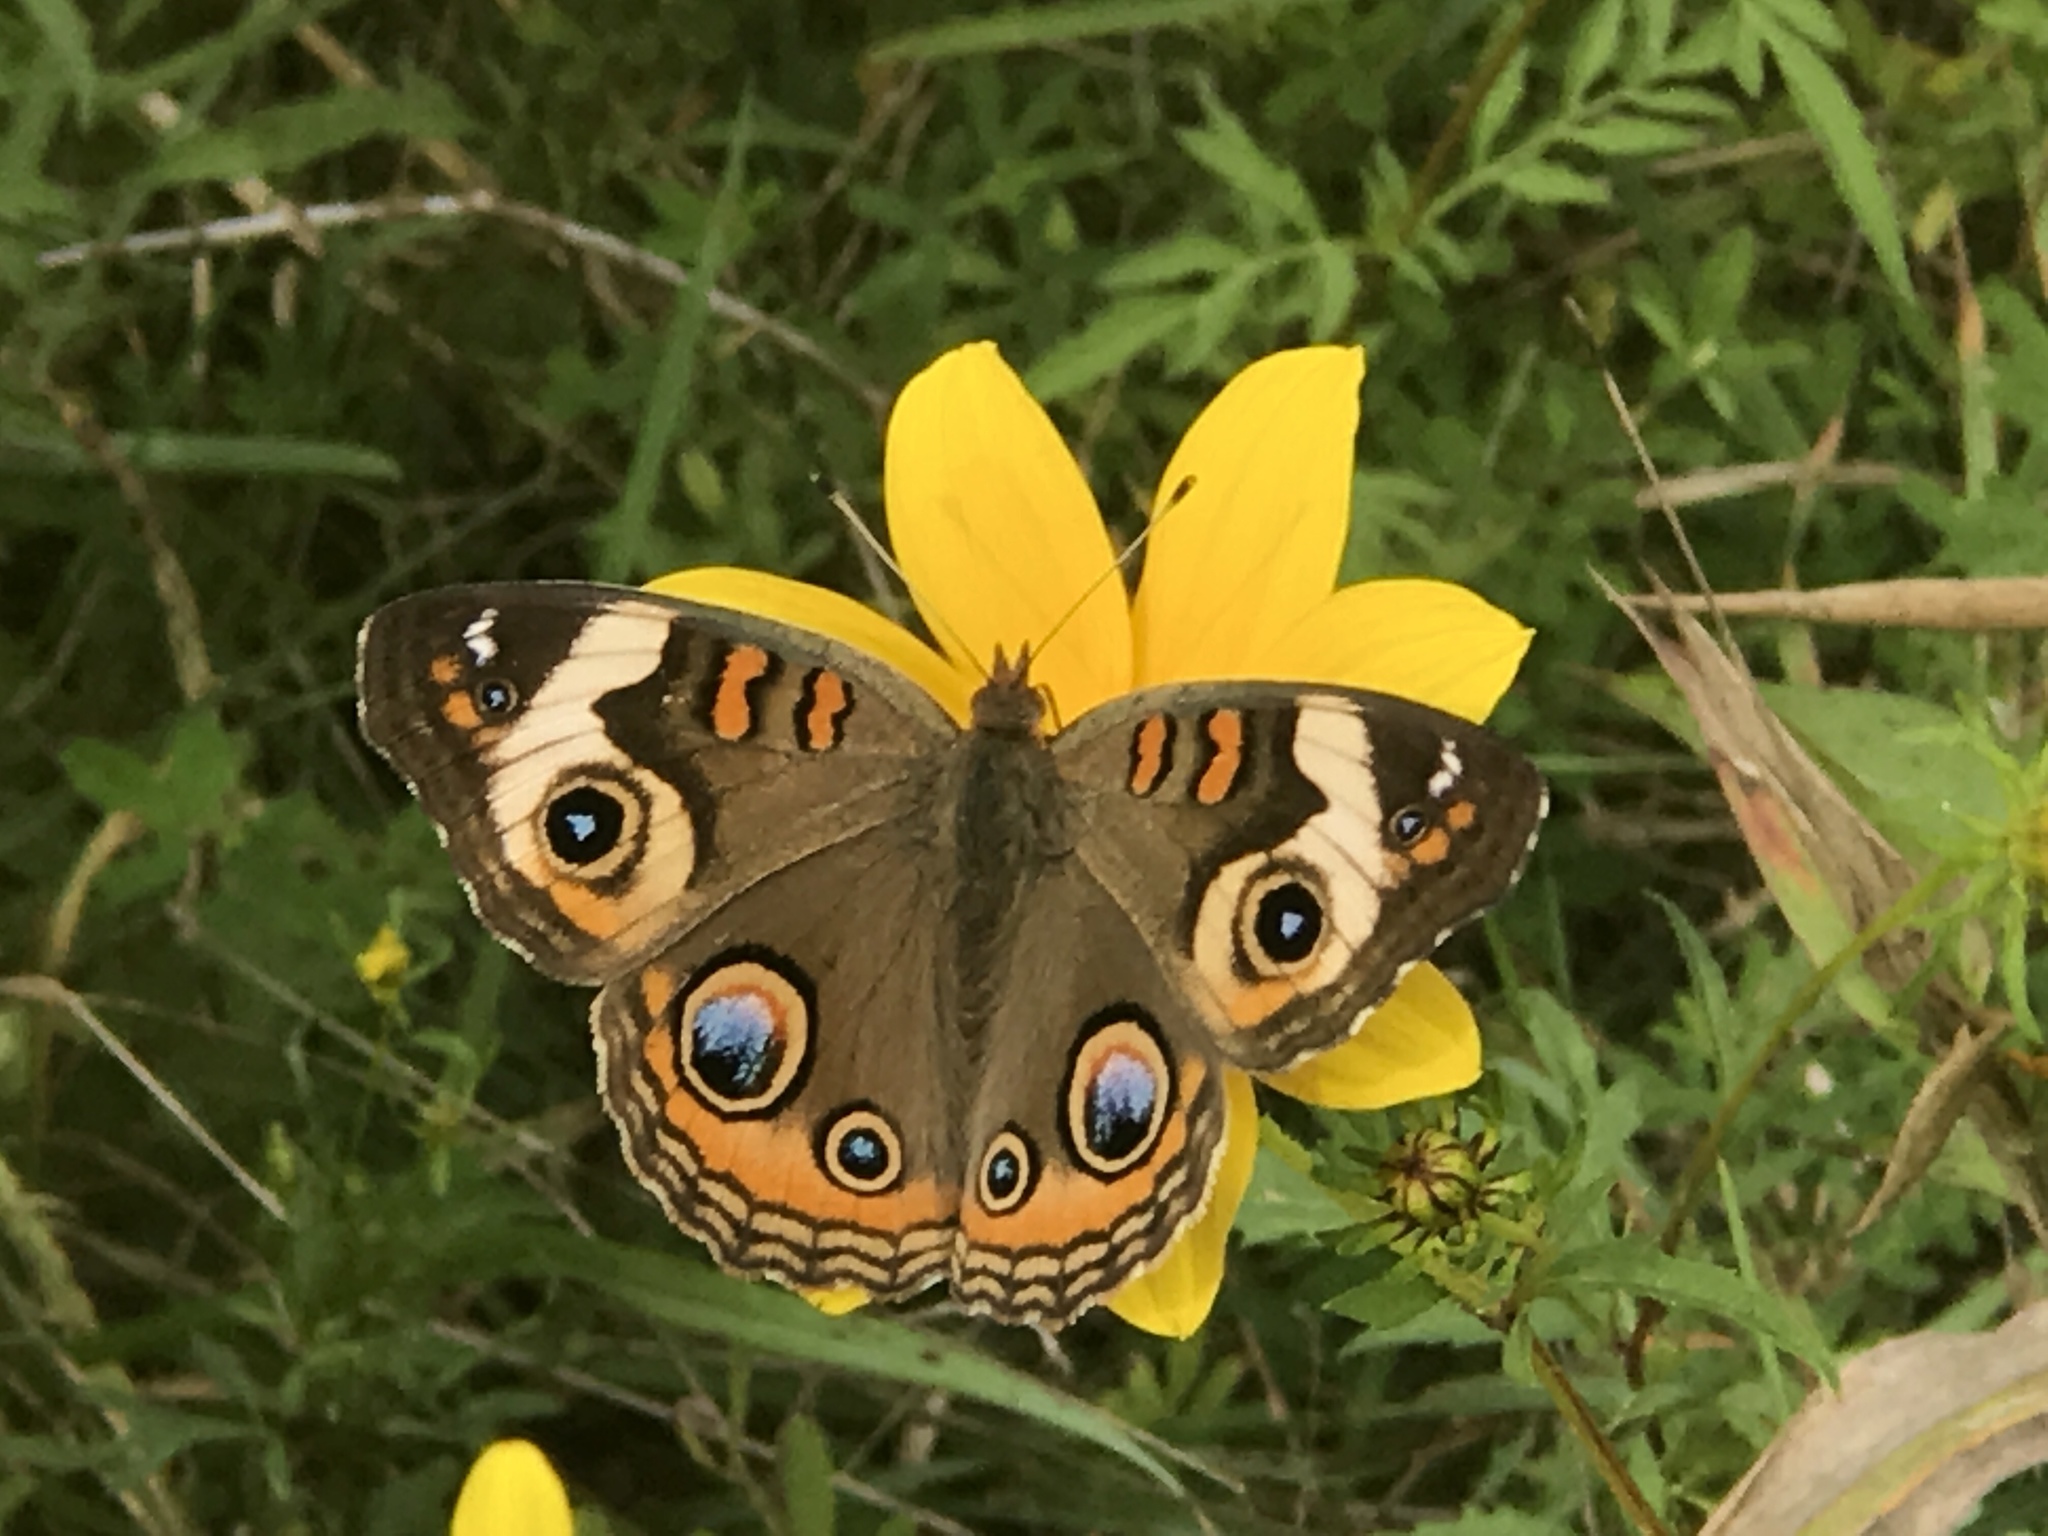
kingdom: Animalia
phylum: Arthropoda
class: Insecta
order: Lepidoptera
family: Nymphalidae
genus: Junonia
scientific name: Junonia coenia
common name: Common buckeye
